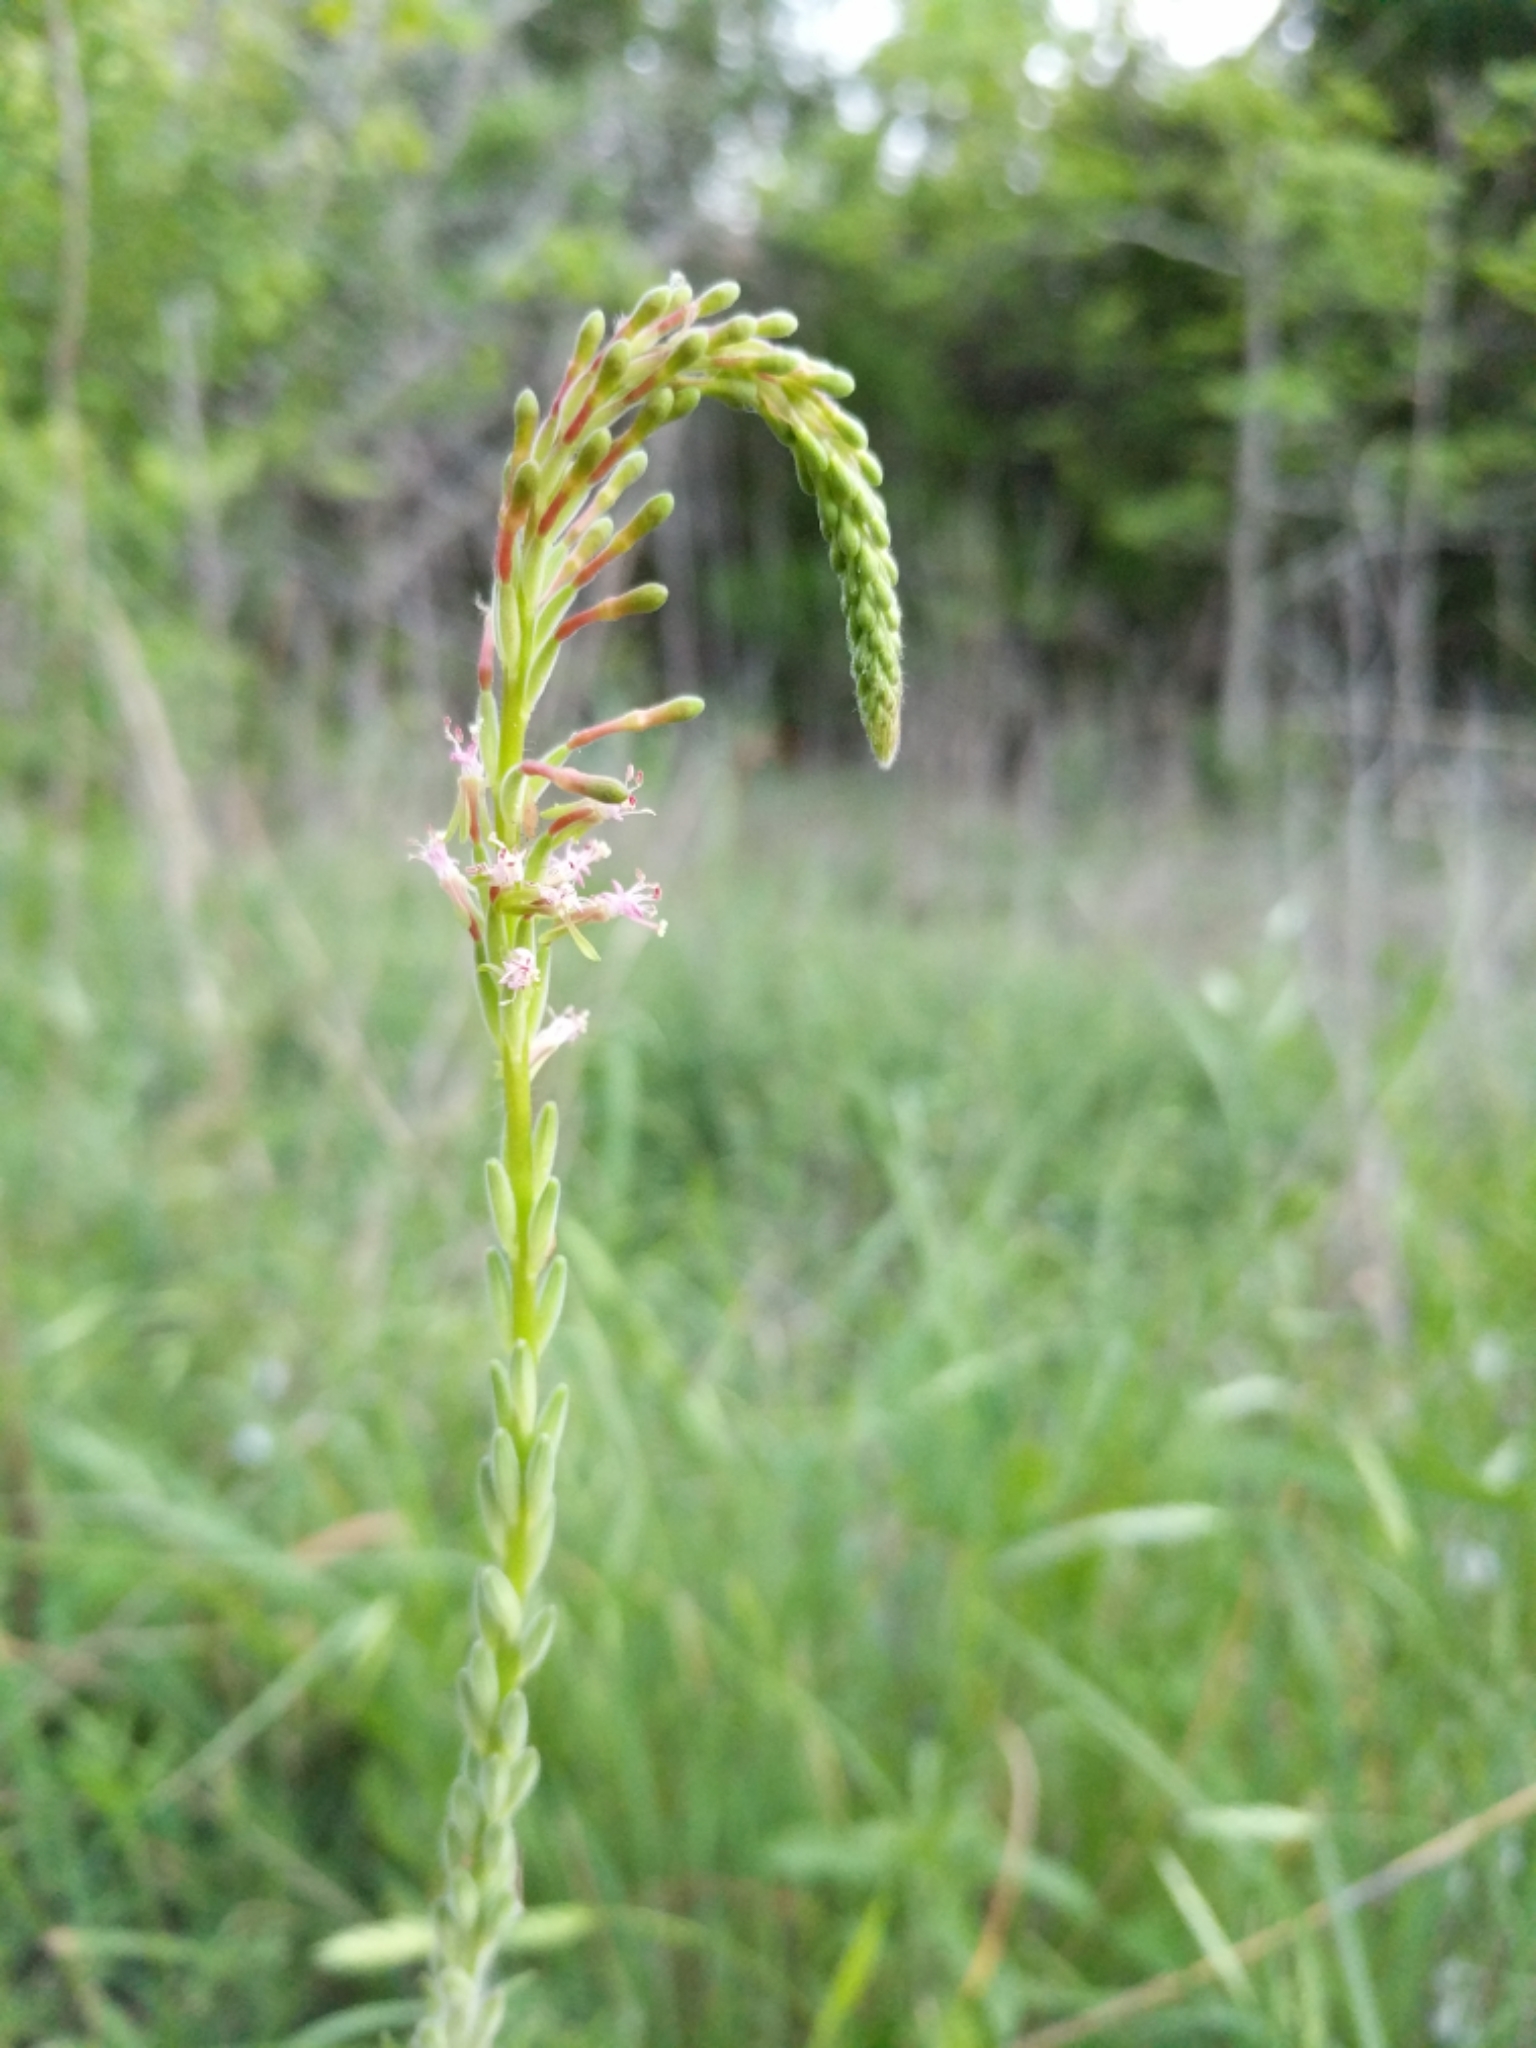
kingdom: Plantae
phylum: Tracheophyta
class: Magnoliopsida
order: Myrtales
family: Onagraceae
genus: Oenothera
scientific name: Oenothera curtiflora
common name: Velvetweed
